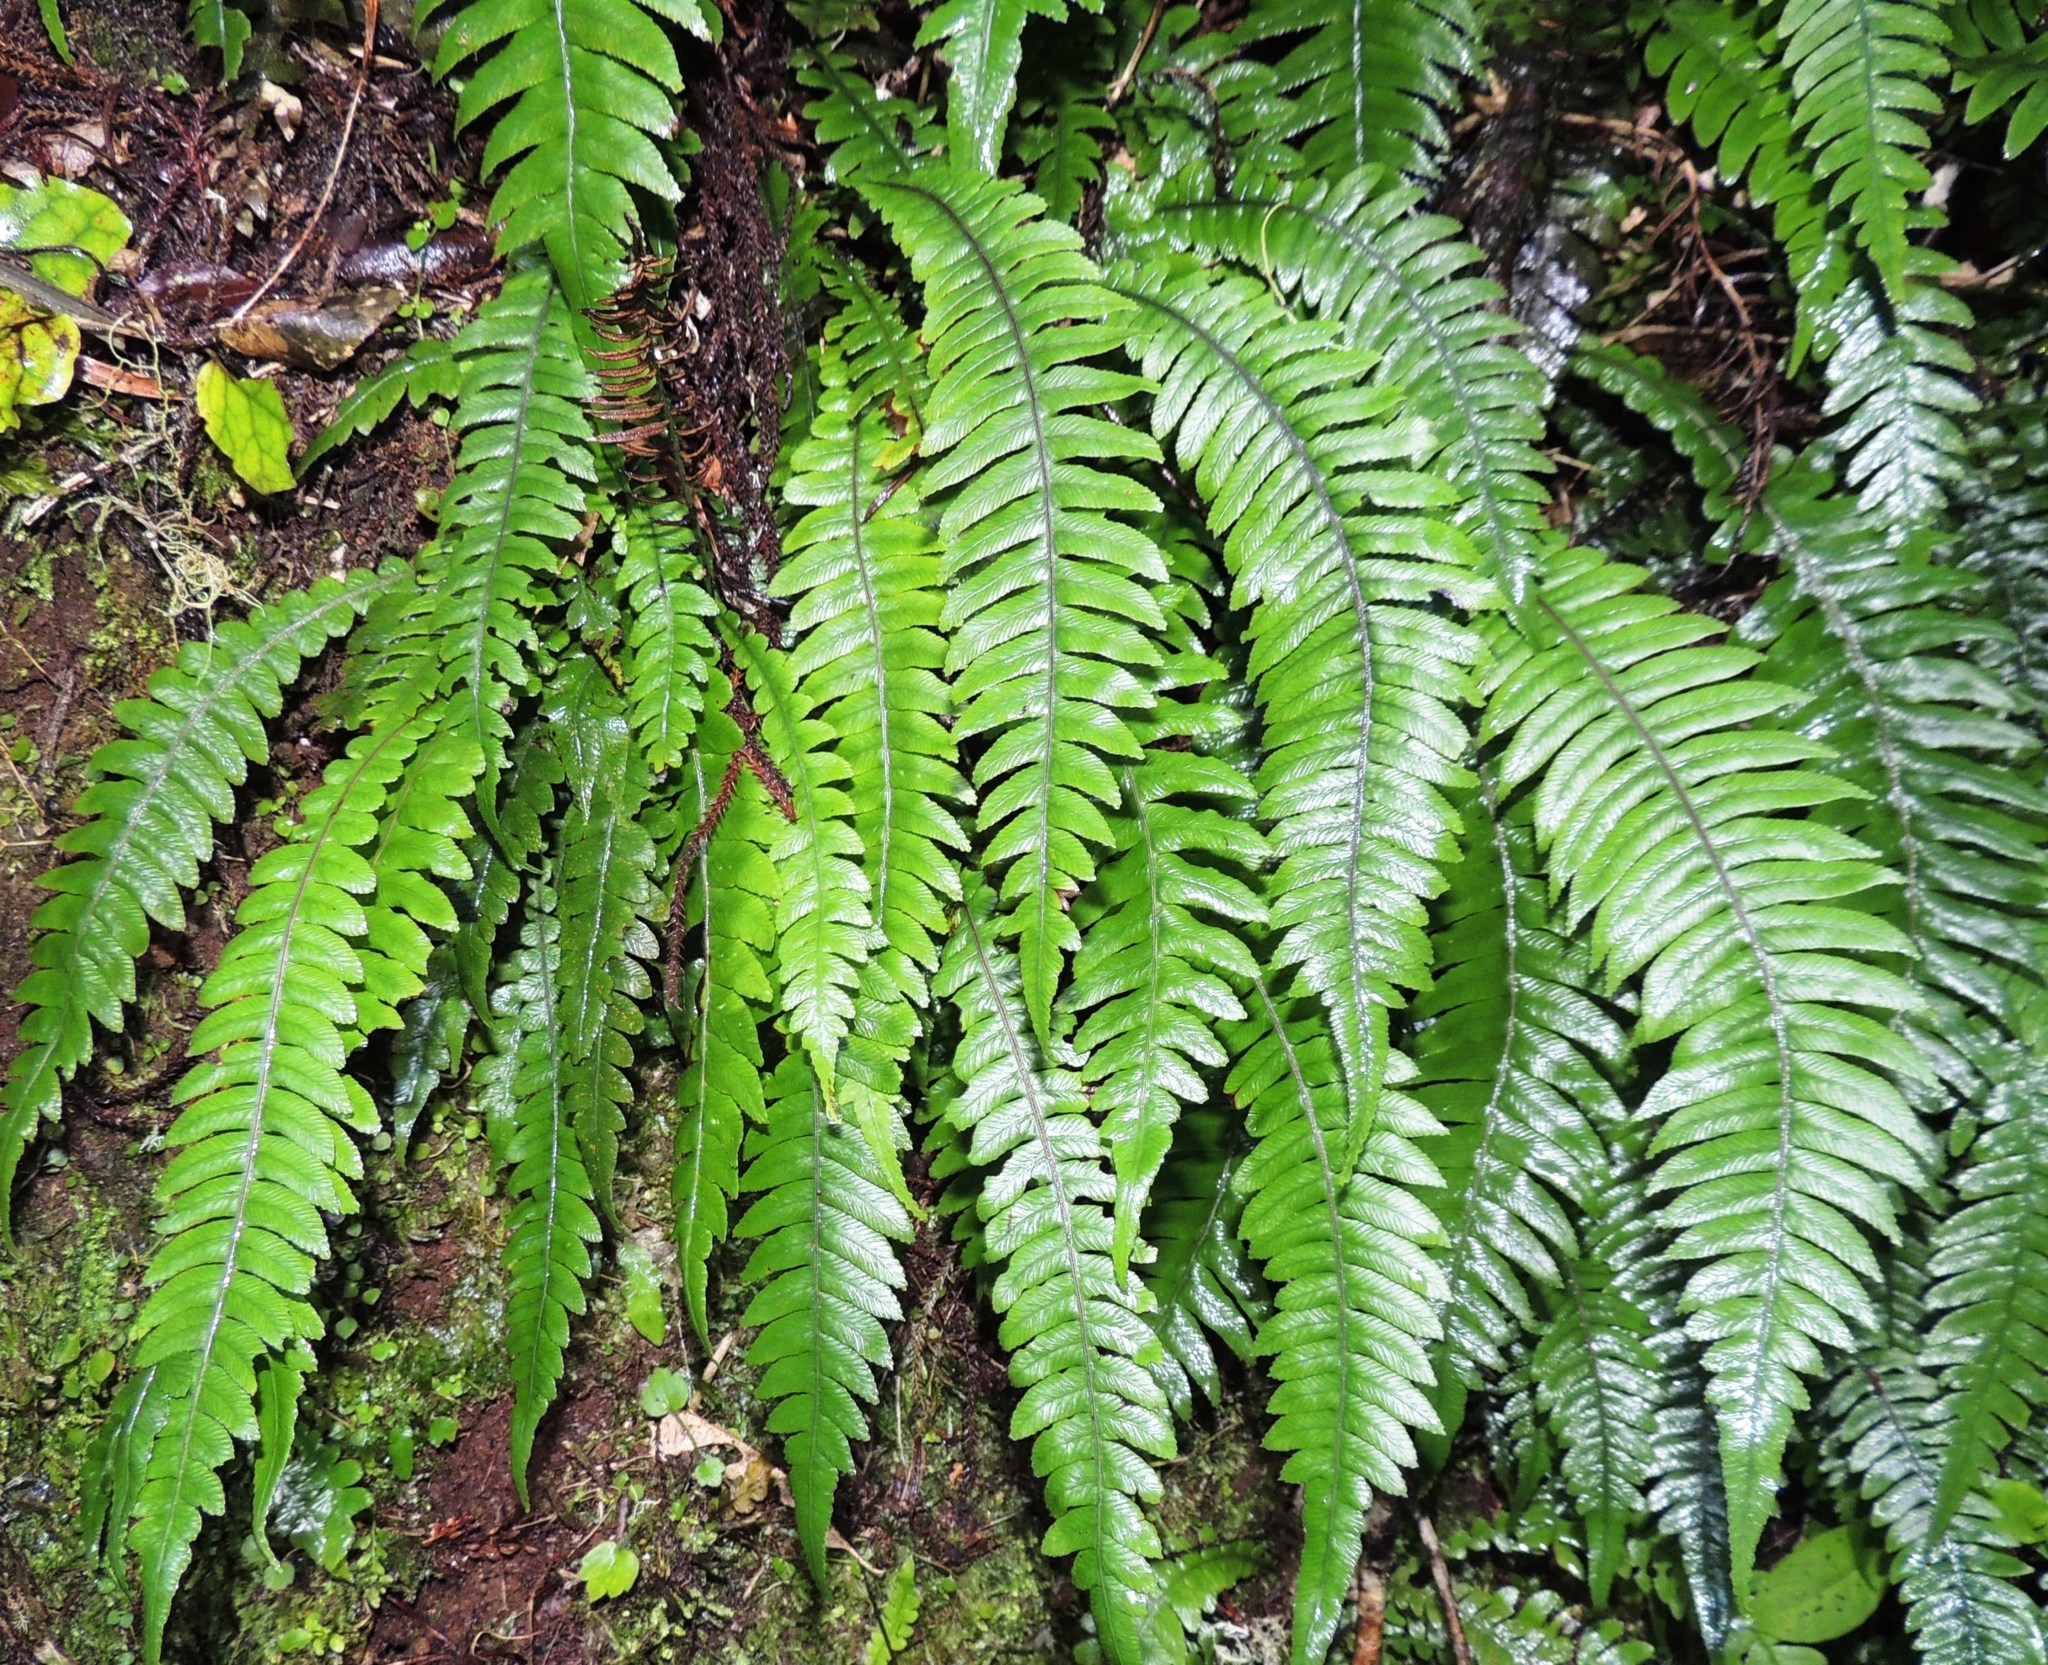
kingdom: Plantae
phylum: Tracheophyta
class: Polypodiopsida
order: Polypodiales
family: Blechnaceae
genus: Austroblechnum
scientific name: Austroblechnum lanceolatum
